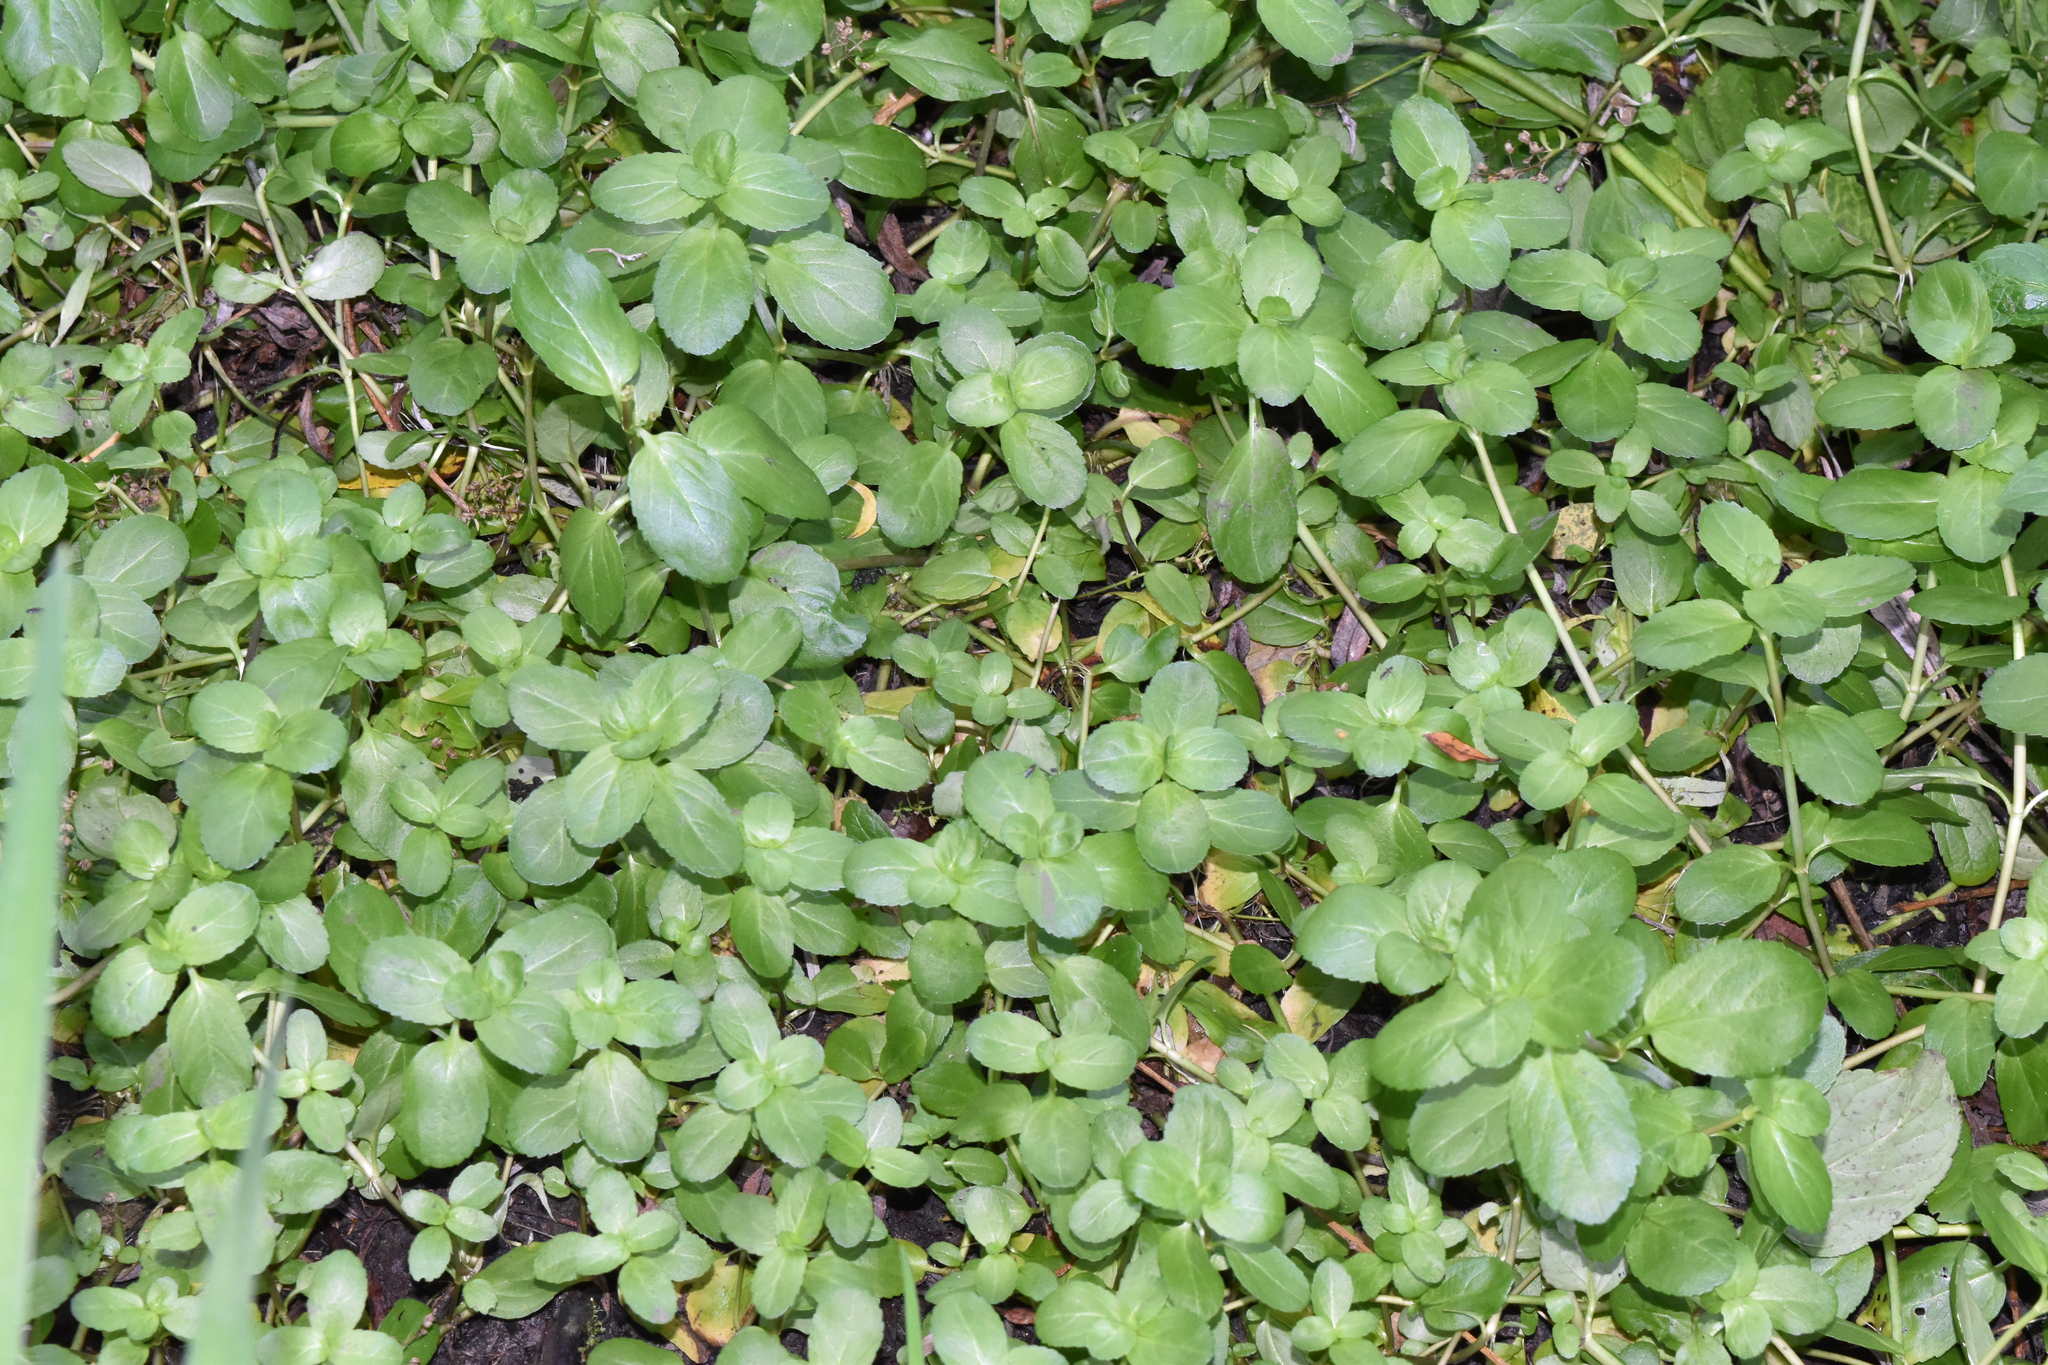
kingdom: Plantae
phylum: Tracheophyta
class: Magnoliopsida
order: Lamiales
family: Plantaginaceae
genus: Veronica
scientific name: Veronica beccabunga
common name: Brooklime
